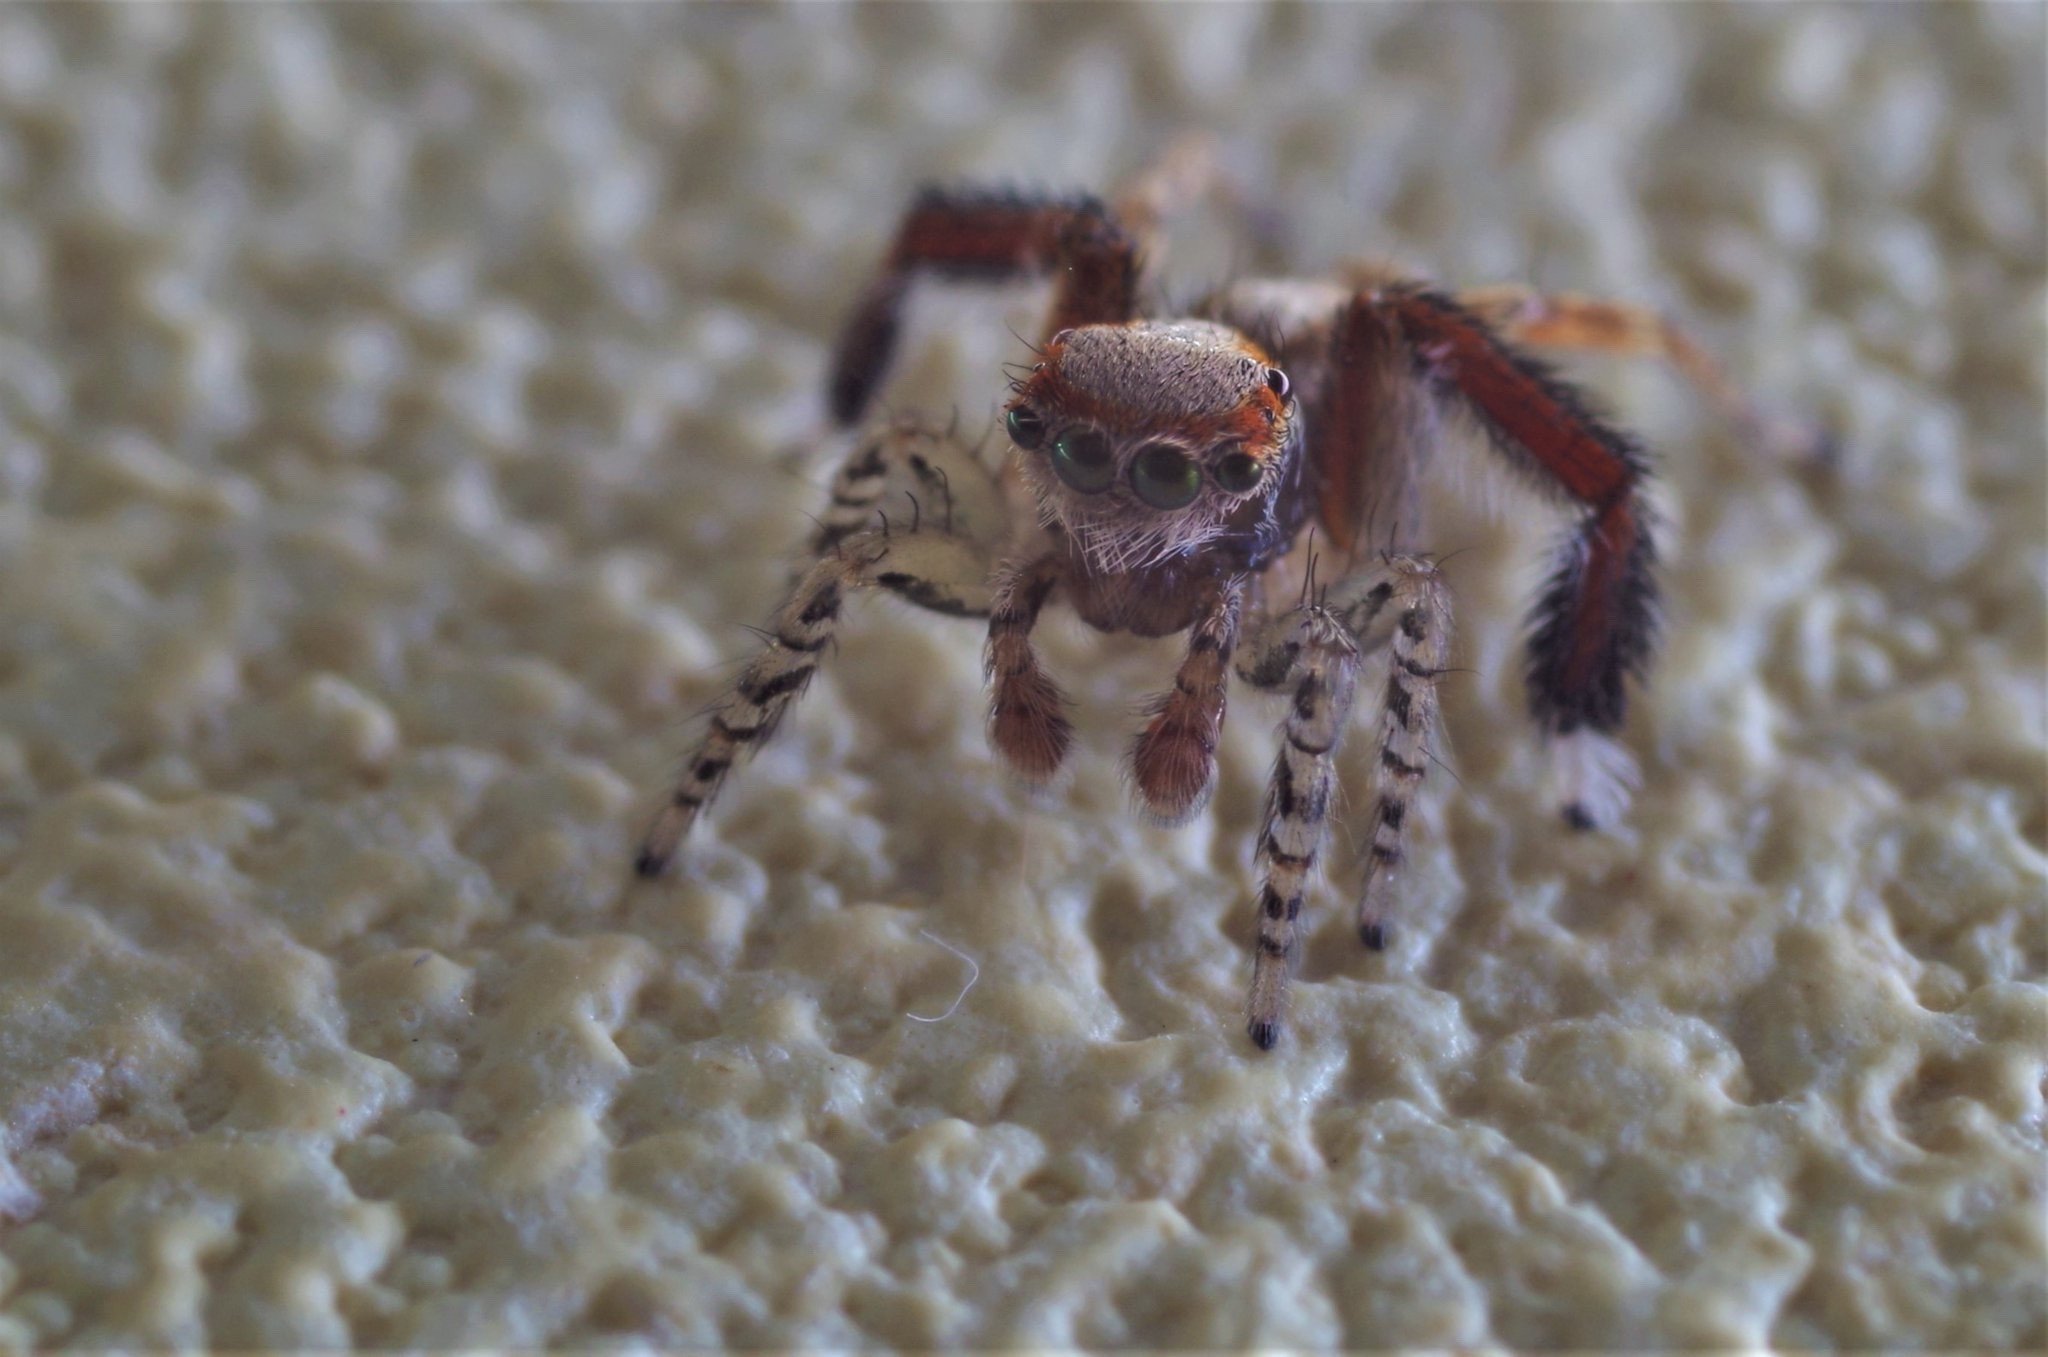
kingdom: Animalia
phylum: Arthropoda
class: Arachnida
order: Araneae
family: Salticidae
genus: Saitis
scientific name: Saitis barbipes
